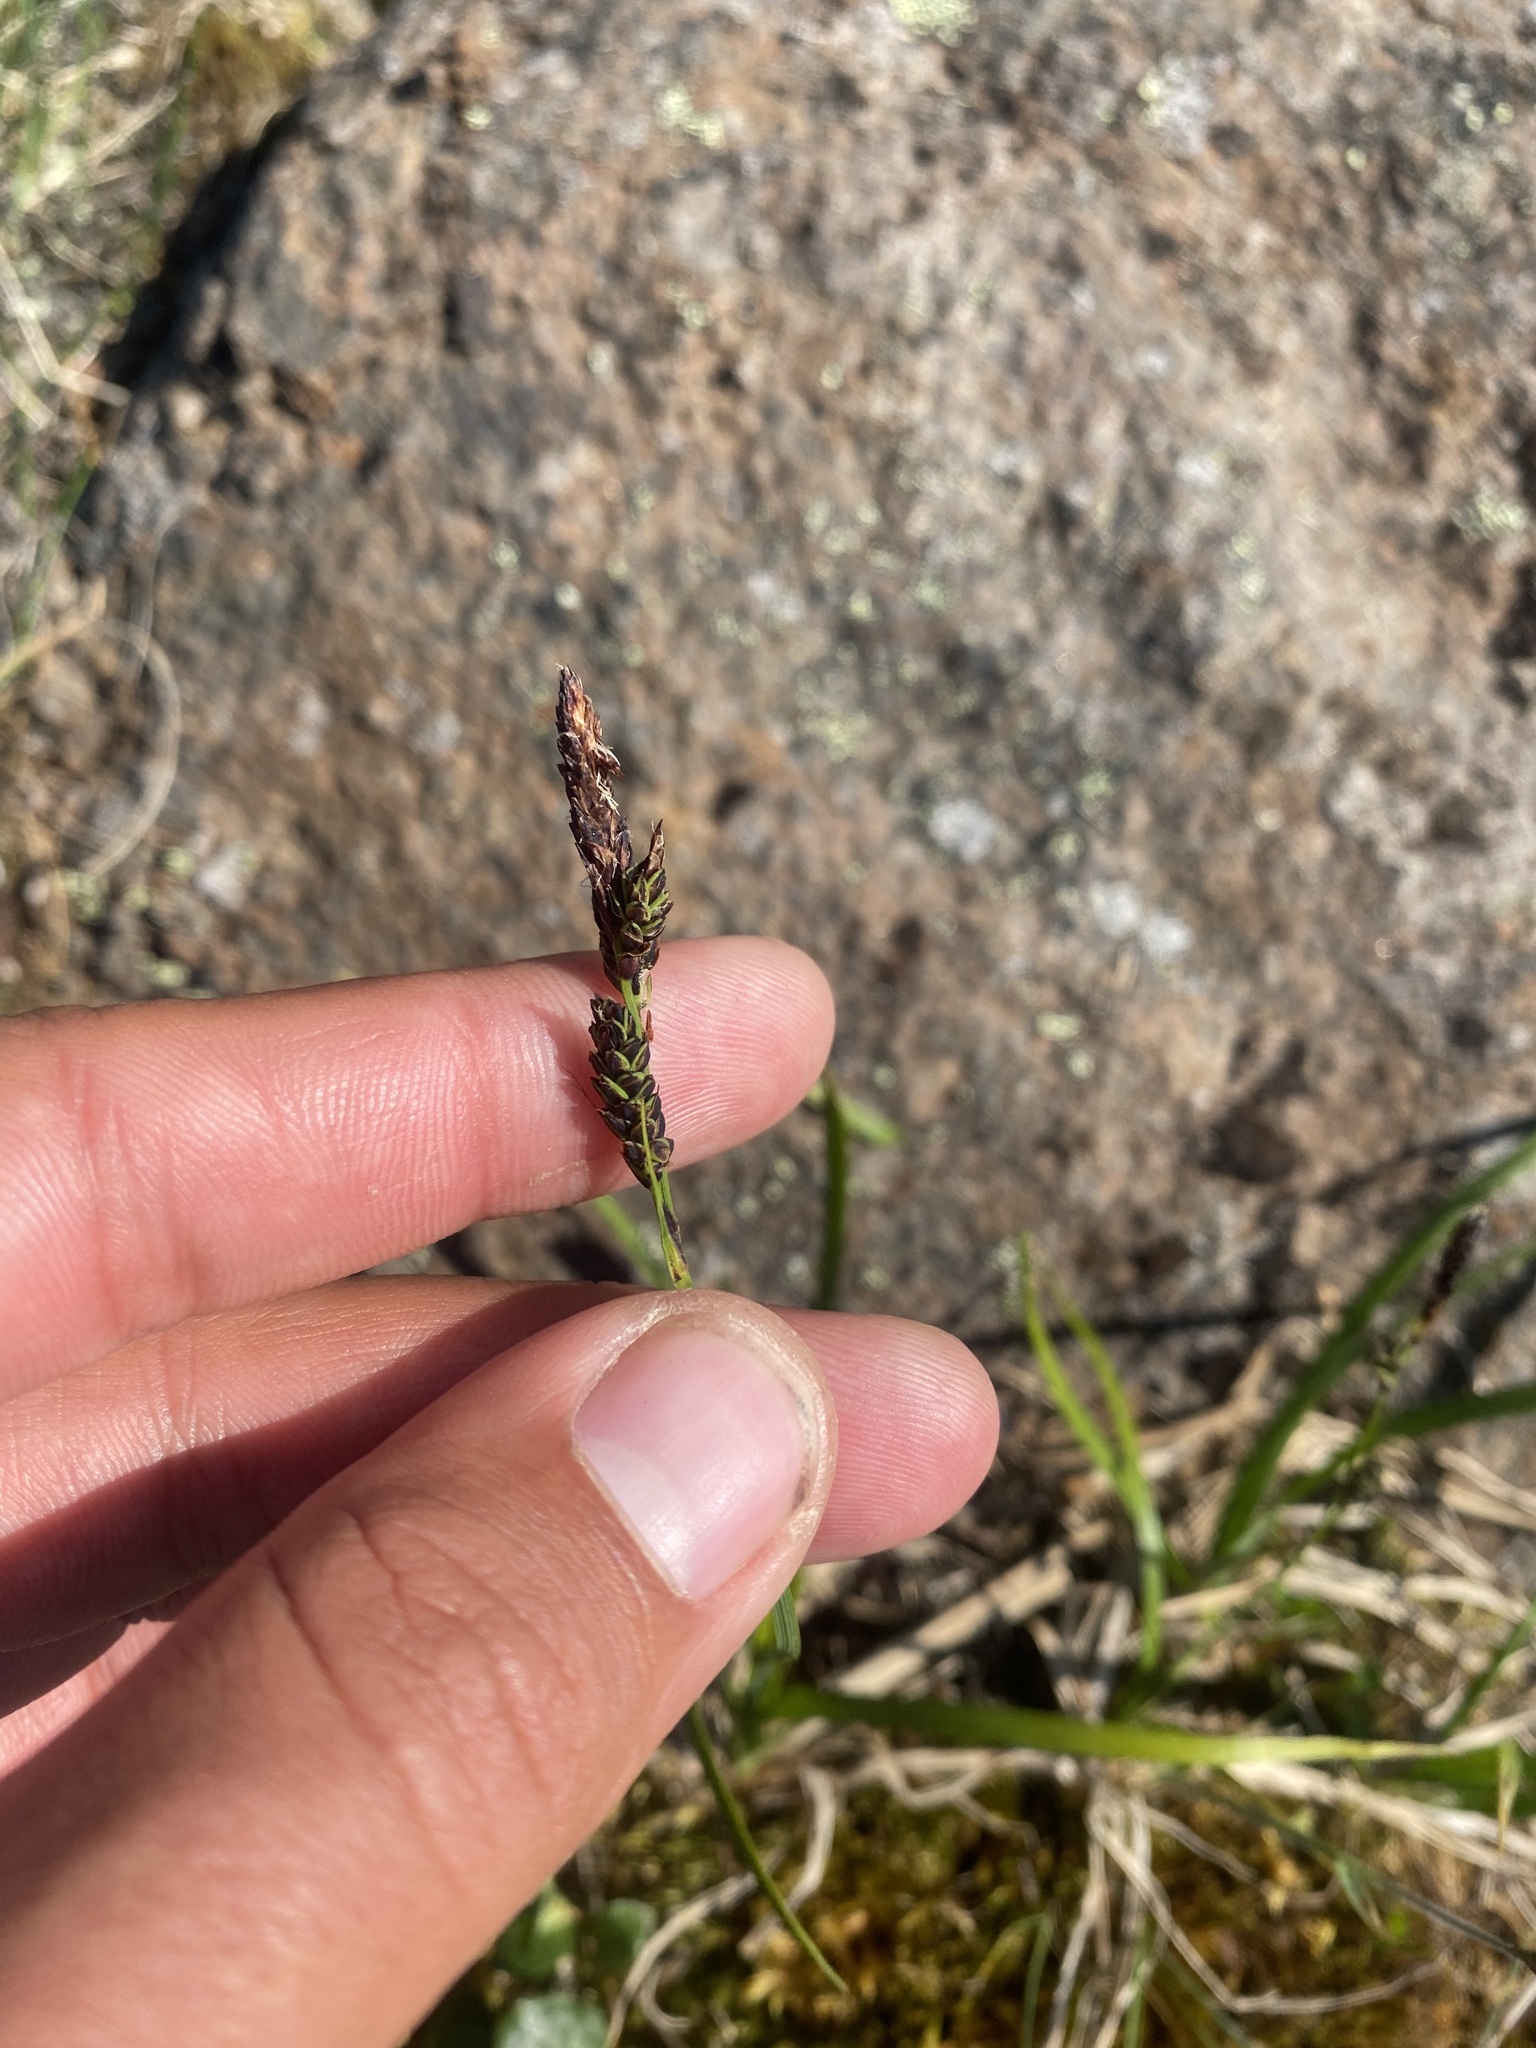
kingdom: Plantae
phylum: Tracheophyta
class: Liliopsida
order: Poales
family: Cyperaceae
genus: Carex
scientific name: Carex bigelowii
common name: Stiff sedge
